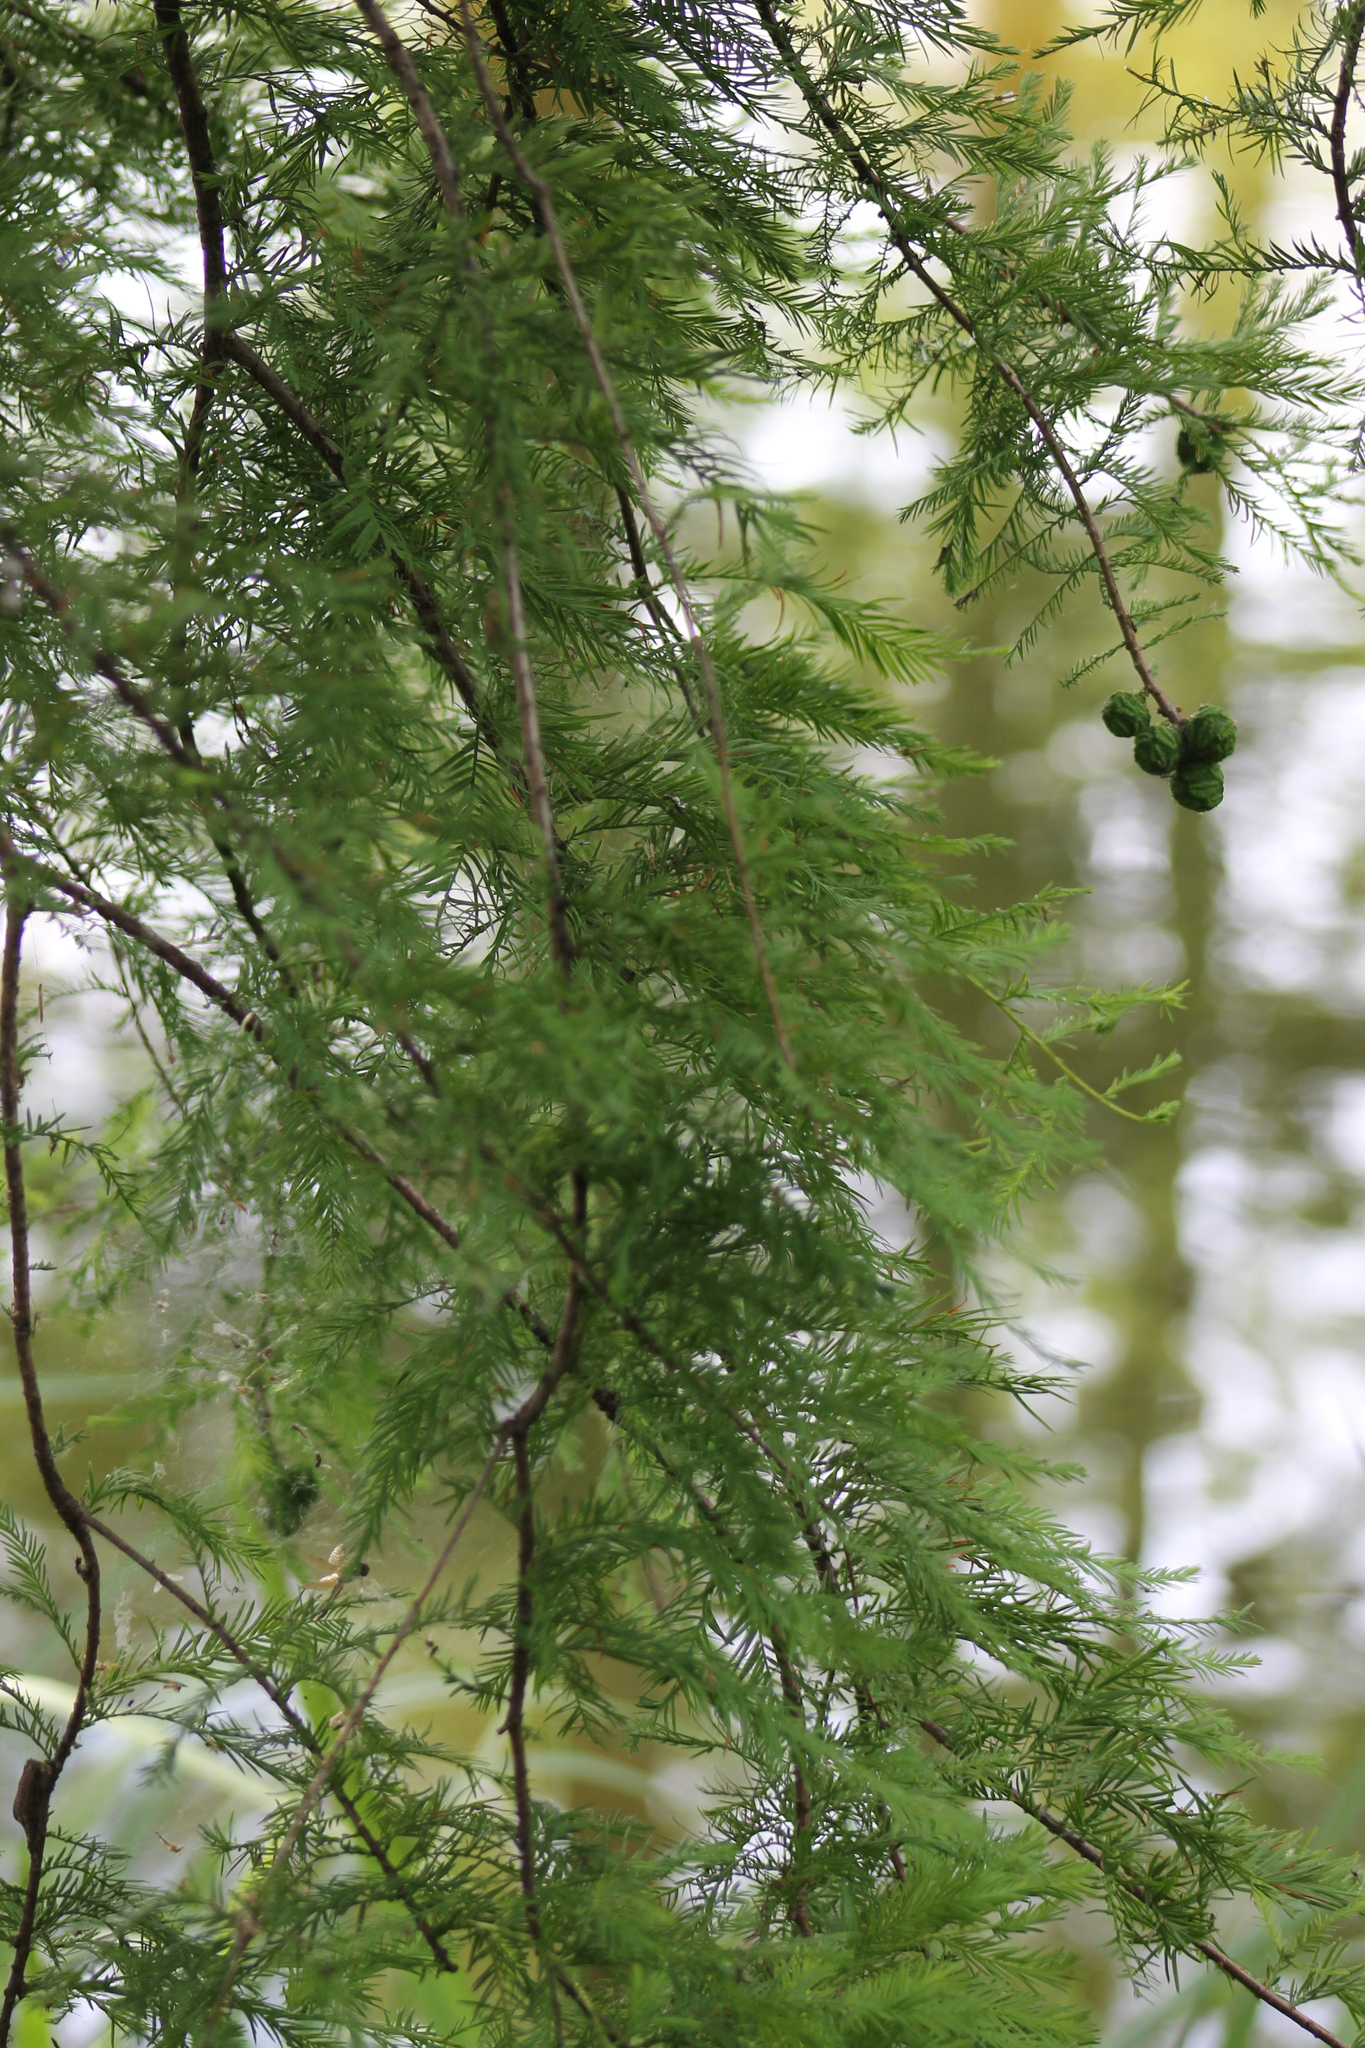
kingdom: Plantae
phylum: Tracheophyta
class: Pinopsida
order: Pinales
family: Cupressaceae
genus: Taxodium
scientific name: Taxodium distichum
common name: Bald cypress
